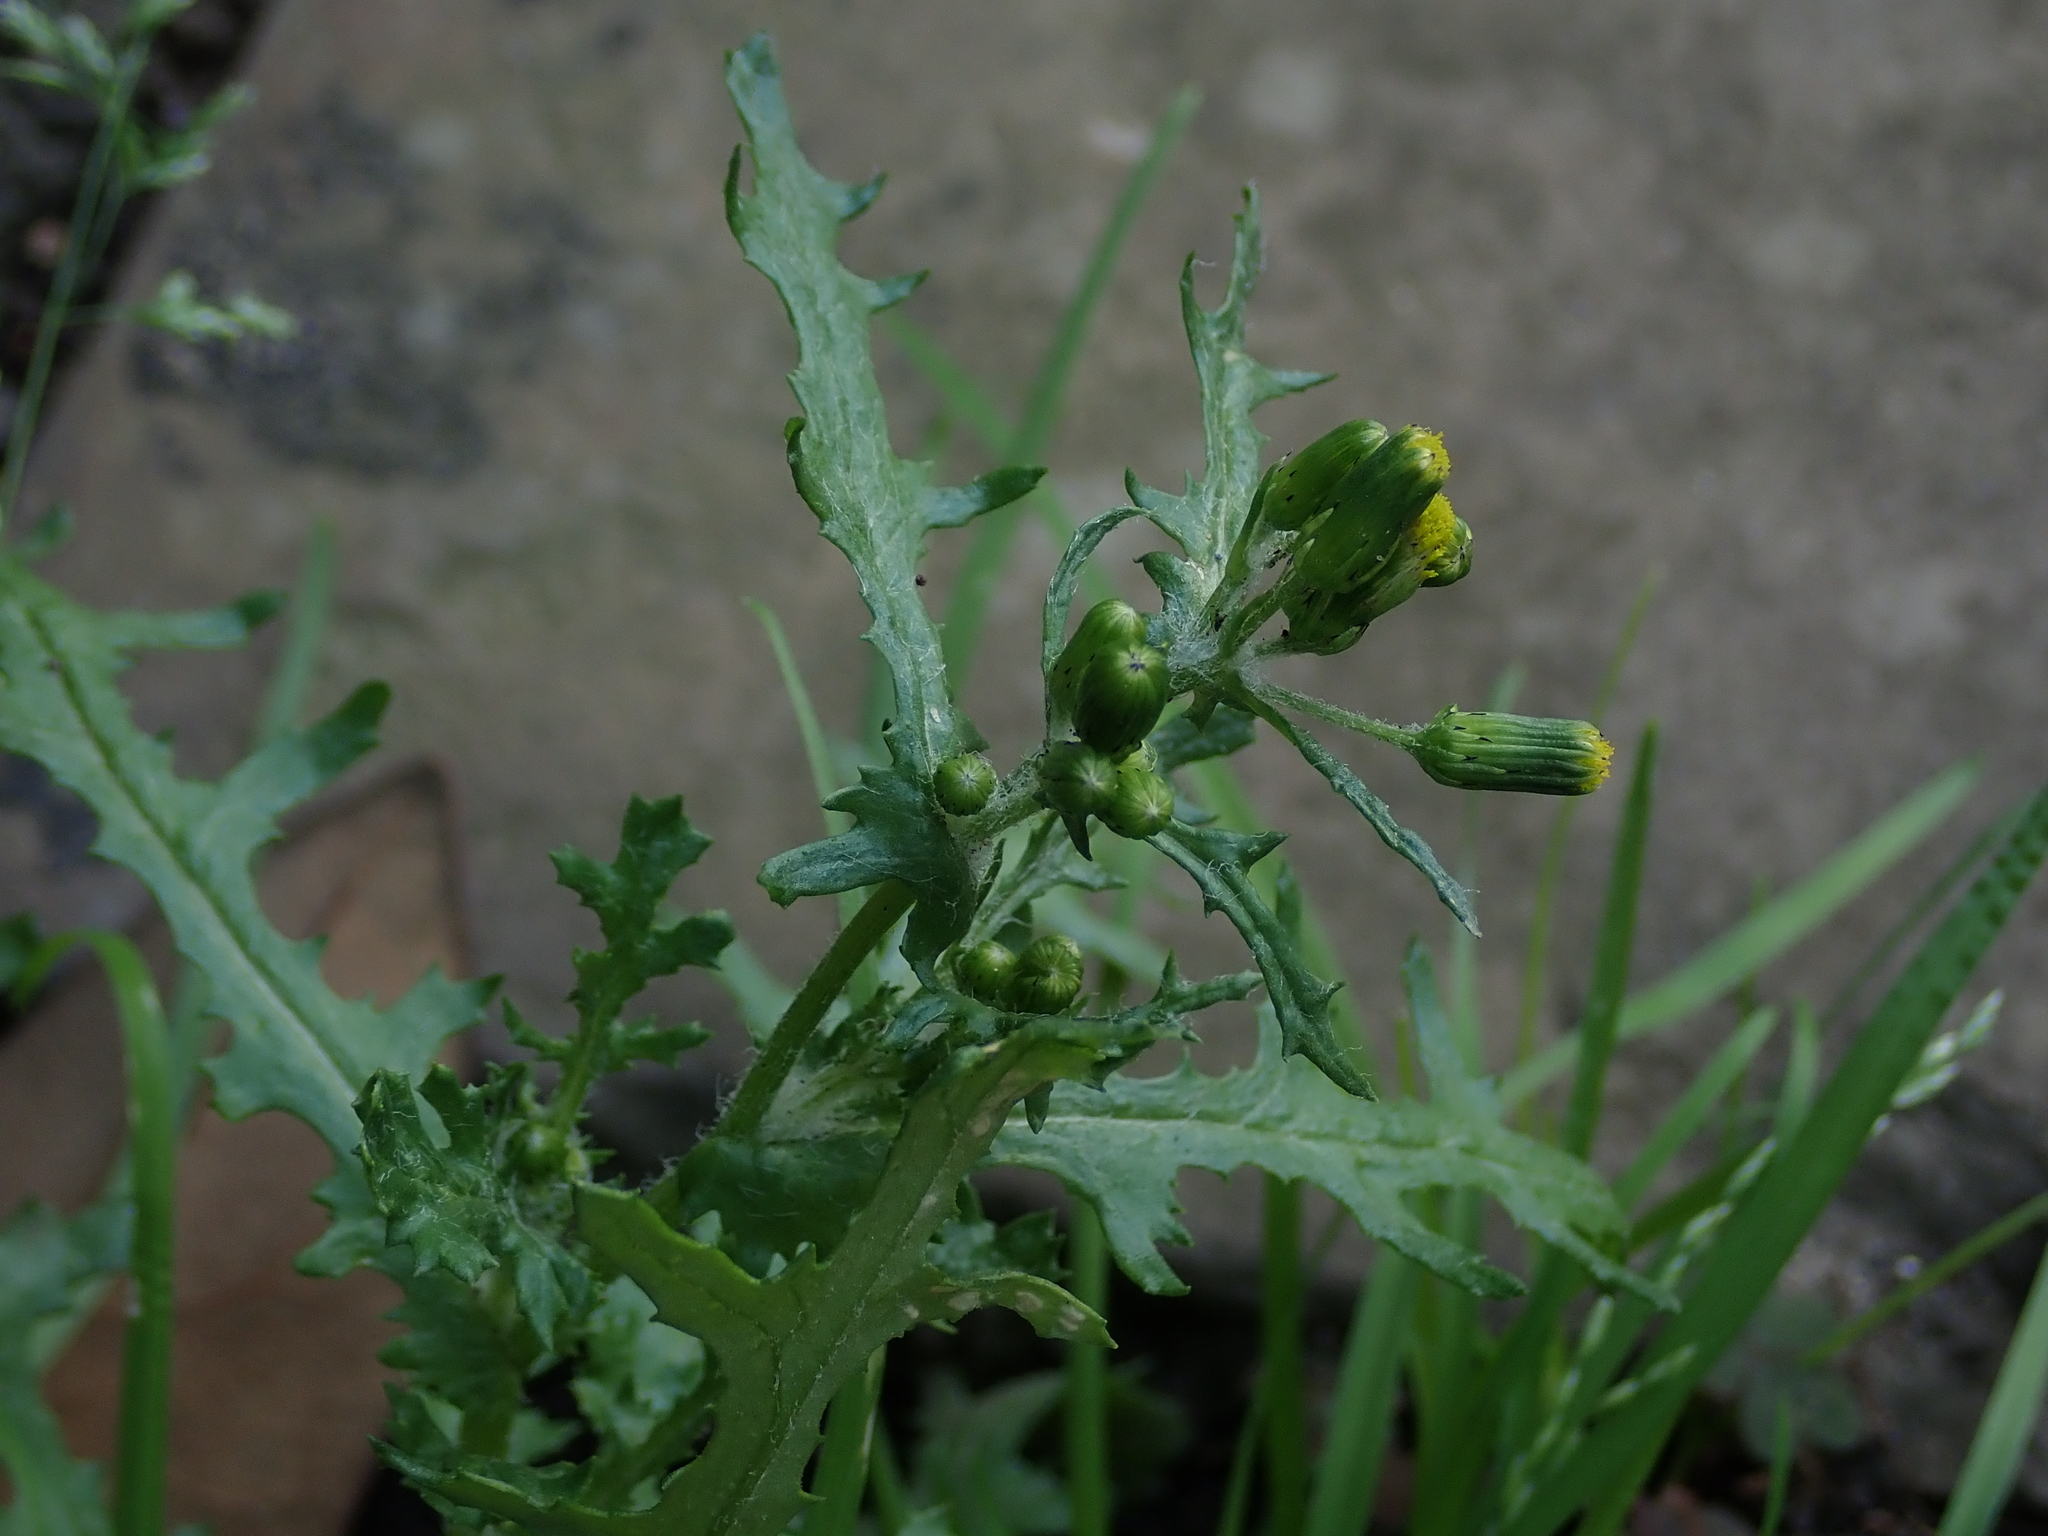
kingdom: Plantae
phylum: Tracheophyta
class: Magnoliopsida
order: Asterales
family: Asteraceae
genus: Senecio
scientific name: Senecio vulgaris
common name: Old-man-in-the-spring
